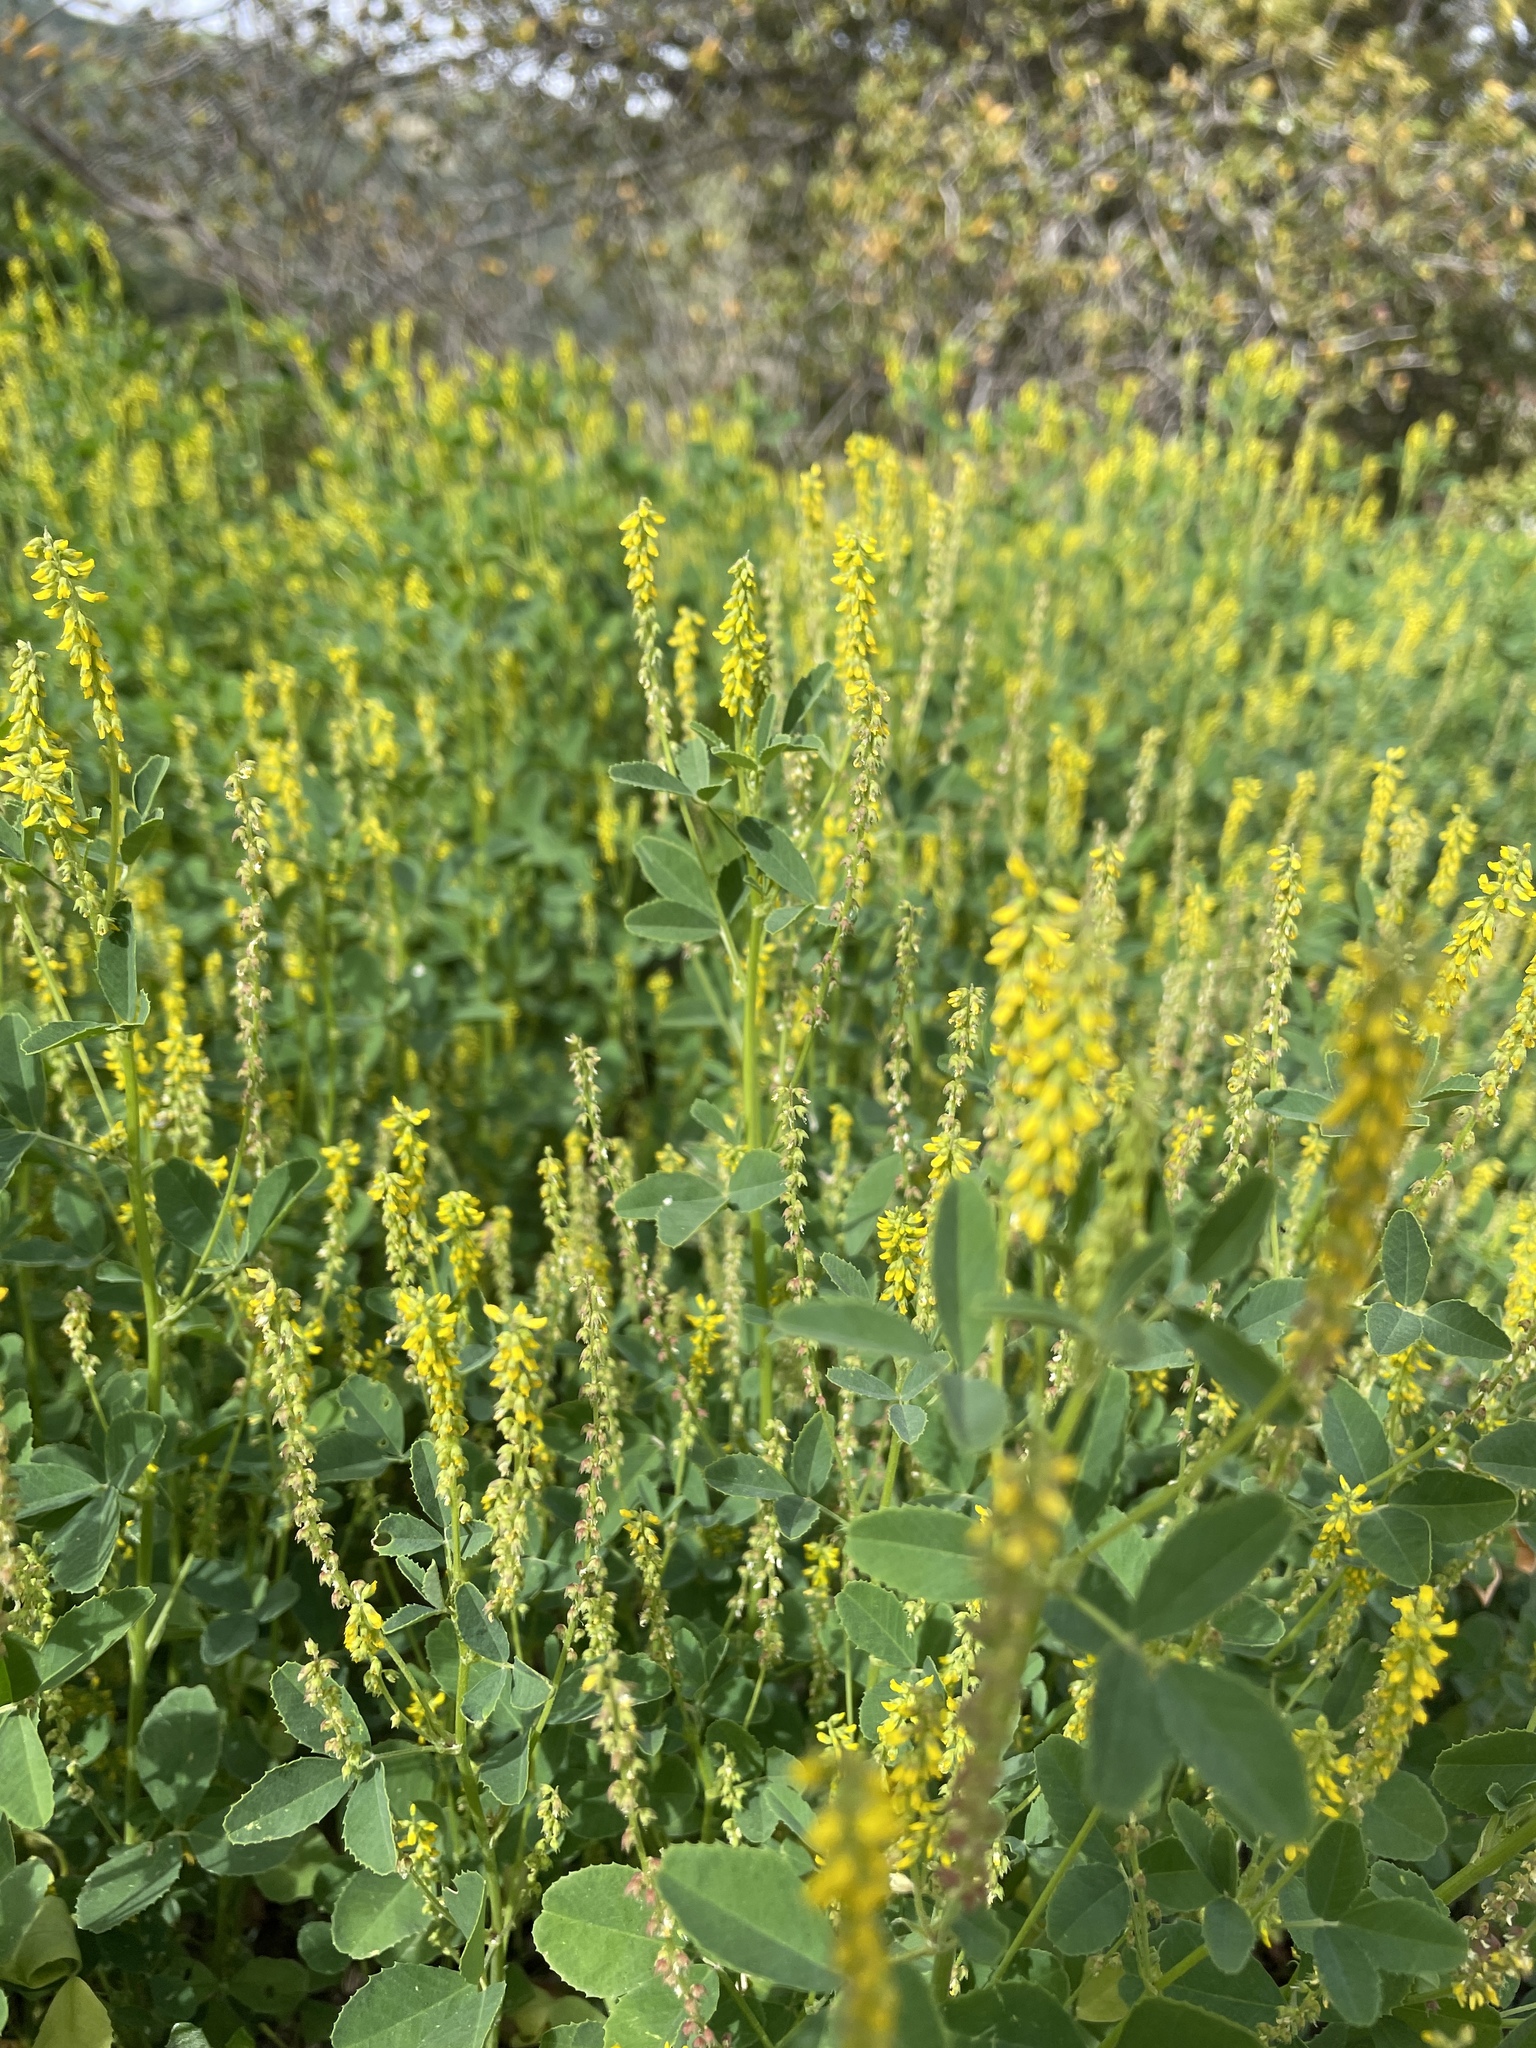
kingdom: Plantae
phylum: Tracheophyta
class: Magnoliopsida
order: Fabales
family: Fabaceae
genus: Melilotus
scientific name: Melilotus indicus
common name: Small melilot
